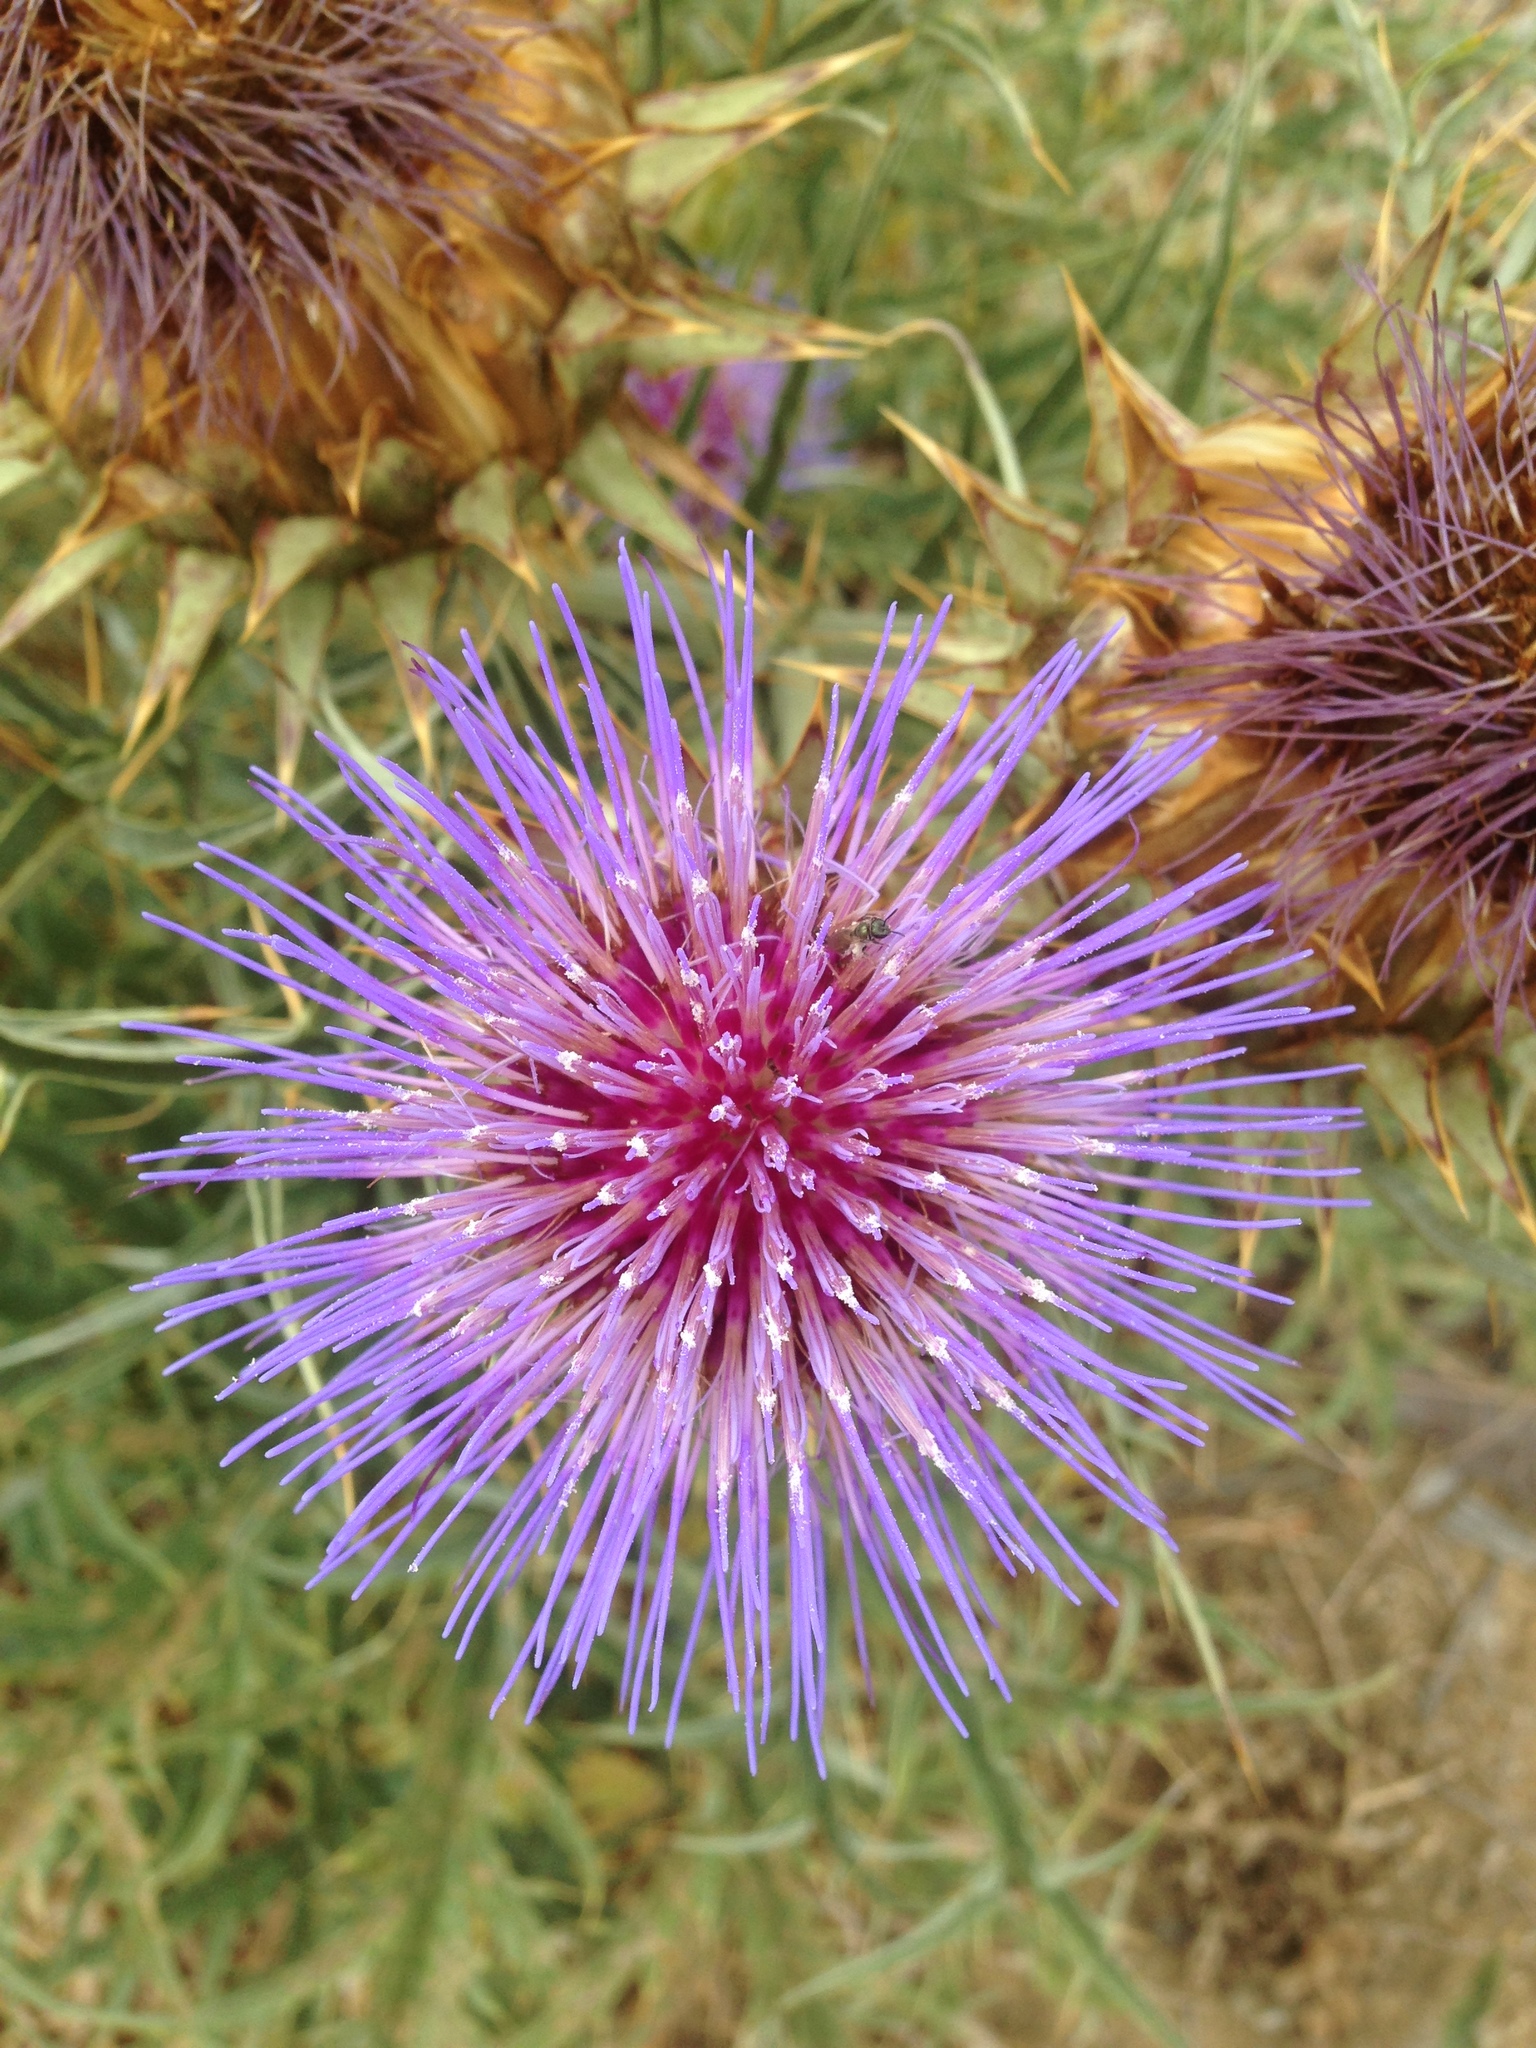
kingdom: Plantae
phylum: Tracheophyta
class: Magnoliopsida
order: Asterales
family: Asteraceae
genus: Cynara
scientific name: Cynara cardunculus
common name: Globe artichoke
